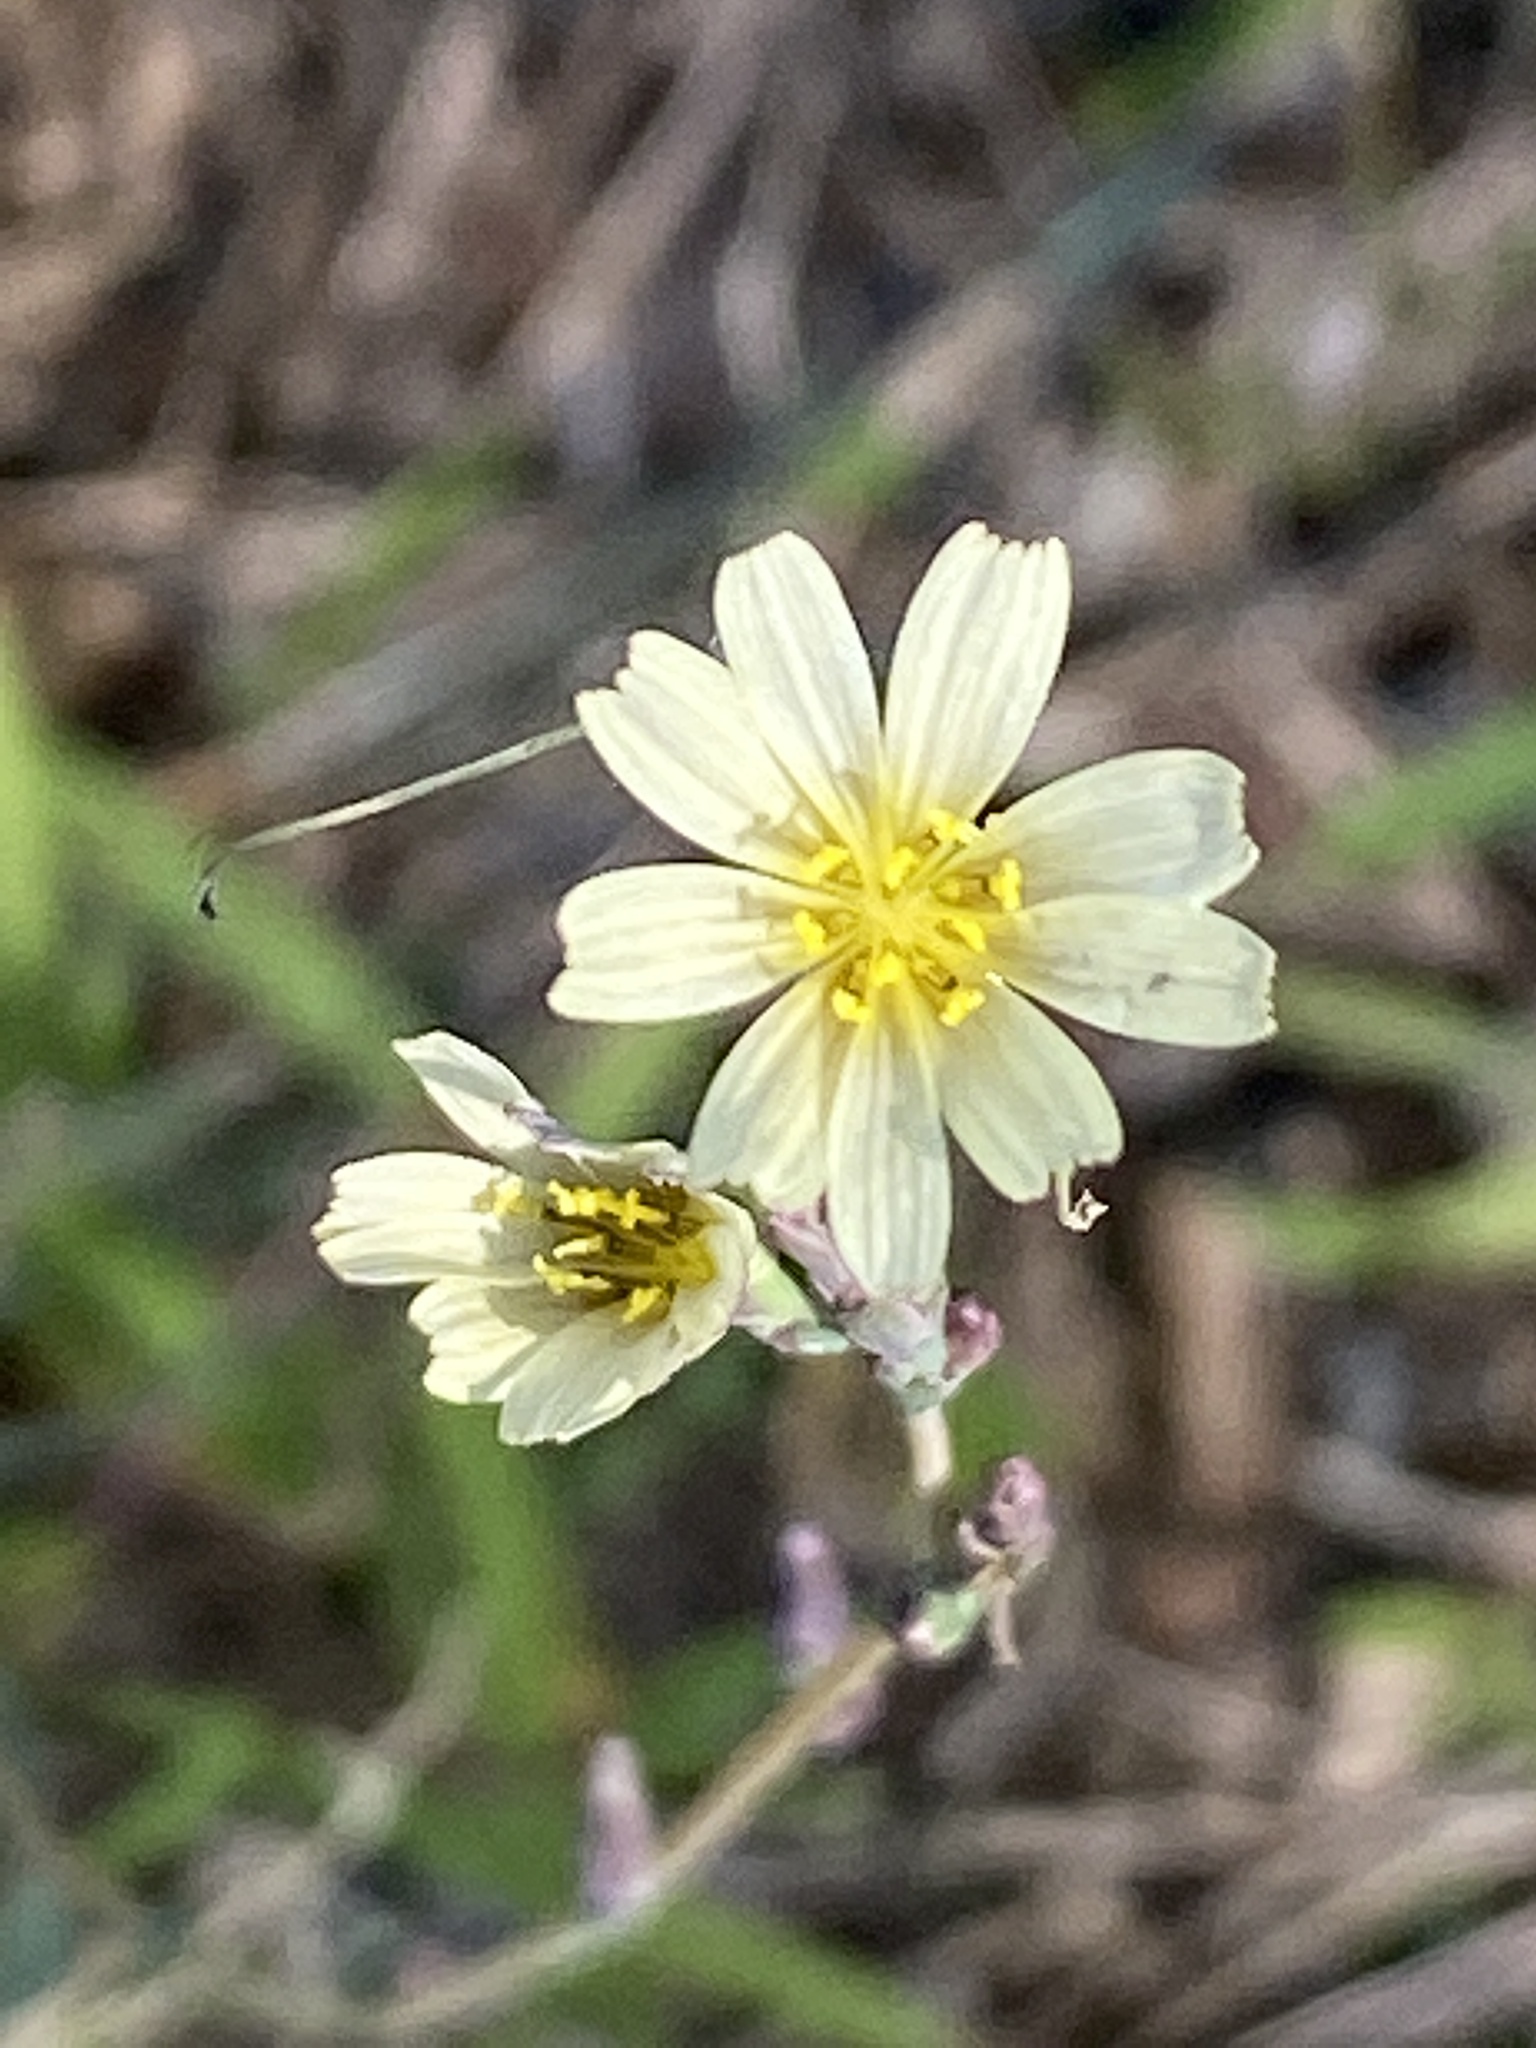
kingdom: Plantae
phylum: Tracheophyta
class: Magnoliopsida
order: Asterales
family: Asteraceae
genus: Lactuca
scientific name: Lactuca saligna
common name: Wild lettuce
